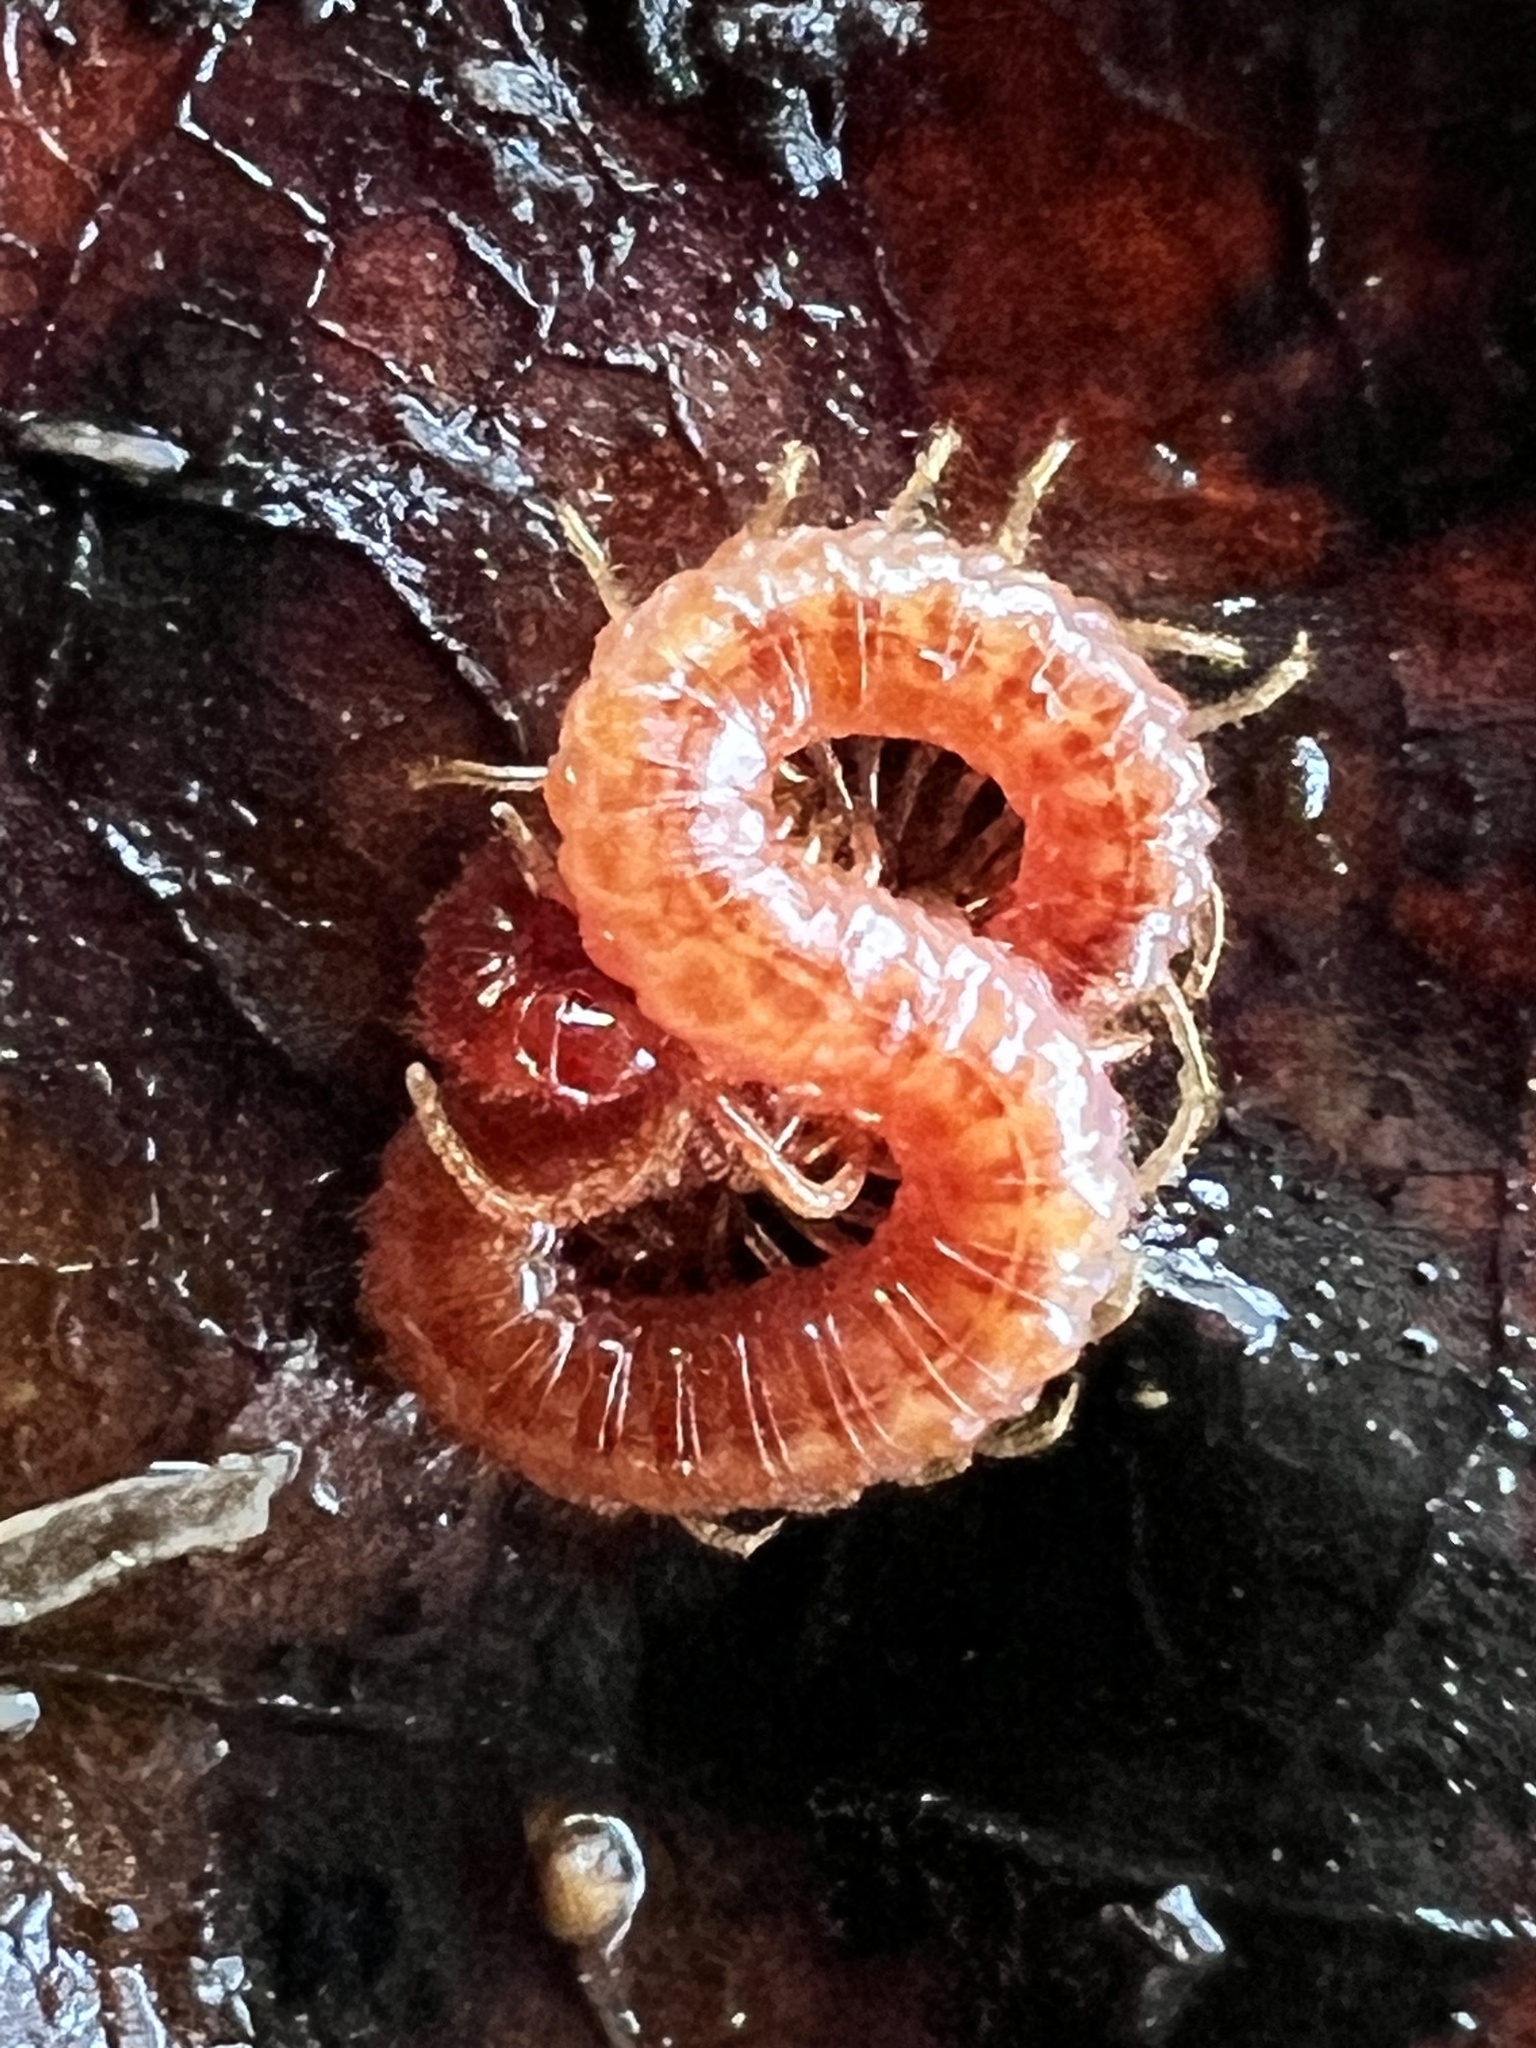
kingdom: Animalia
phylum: Arthropoda
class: Chilopoda
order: Geophilomorpha
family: Linotaeniidae
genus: Strigamia
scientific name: Strigamia branneri
